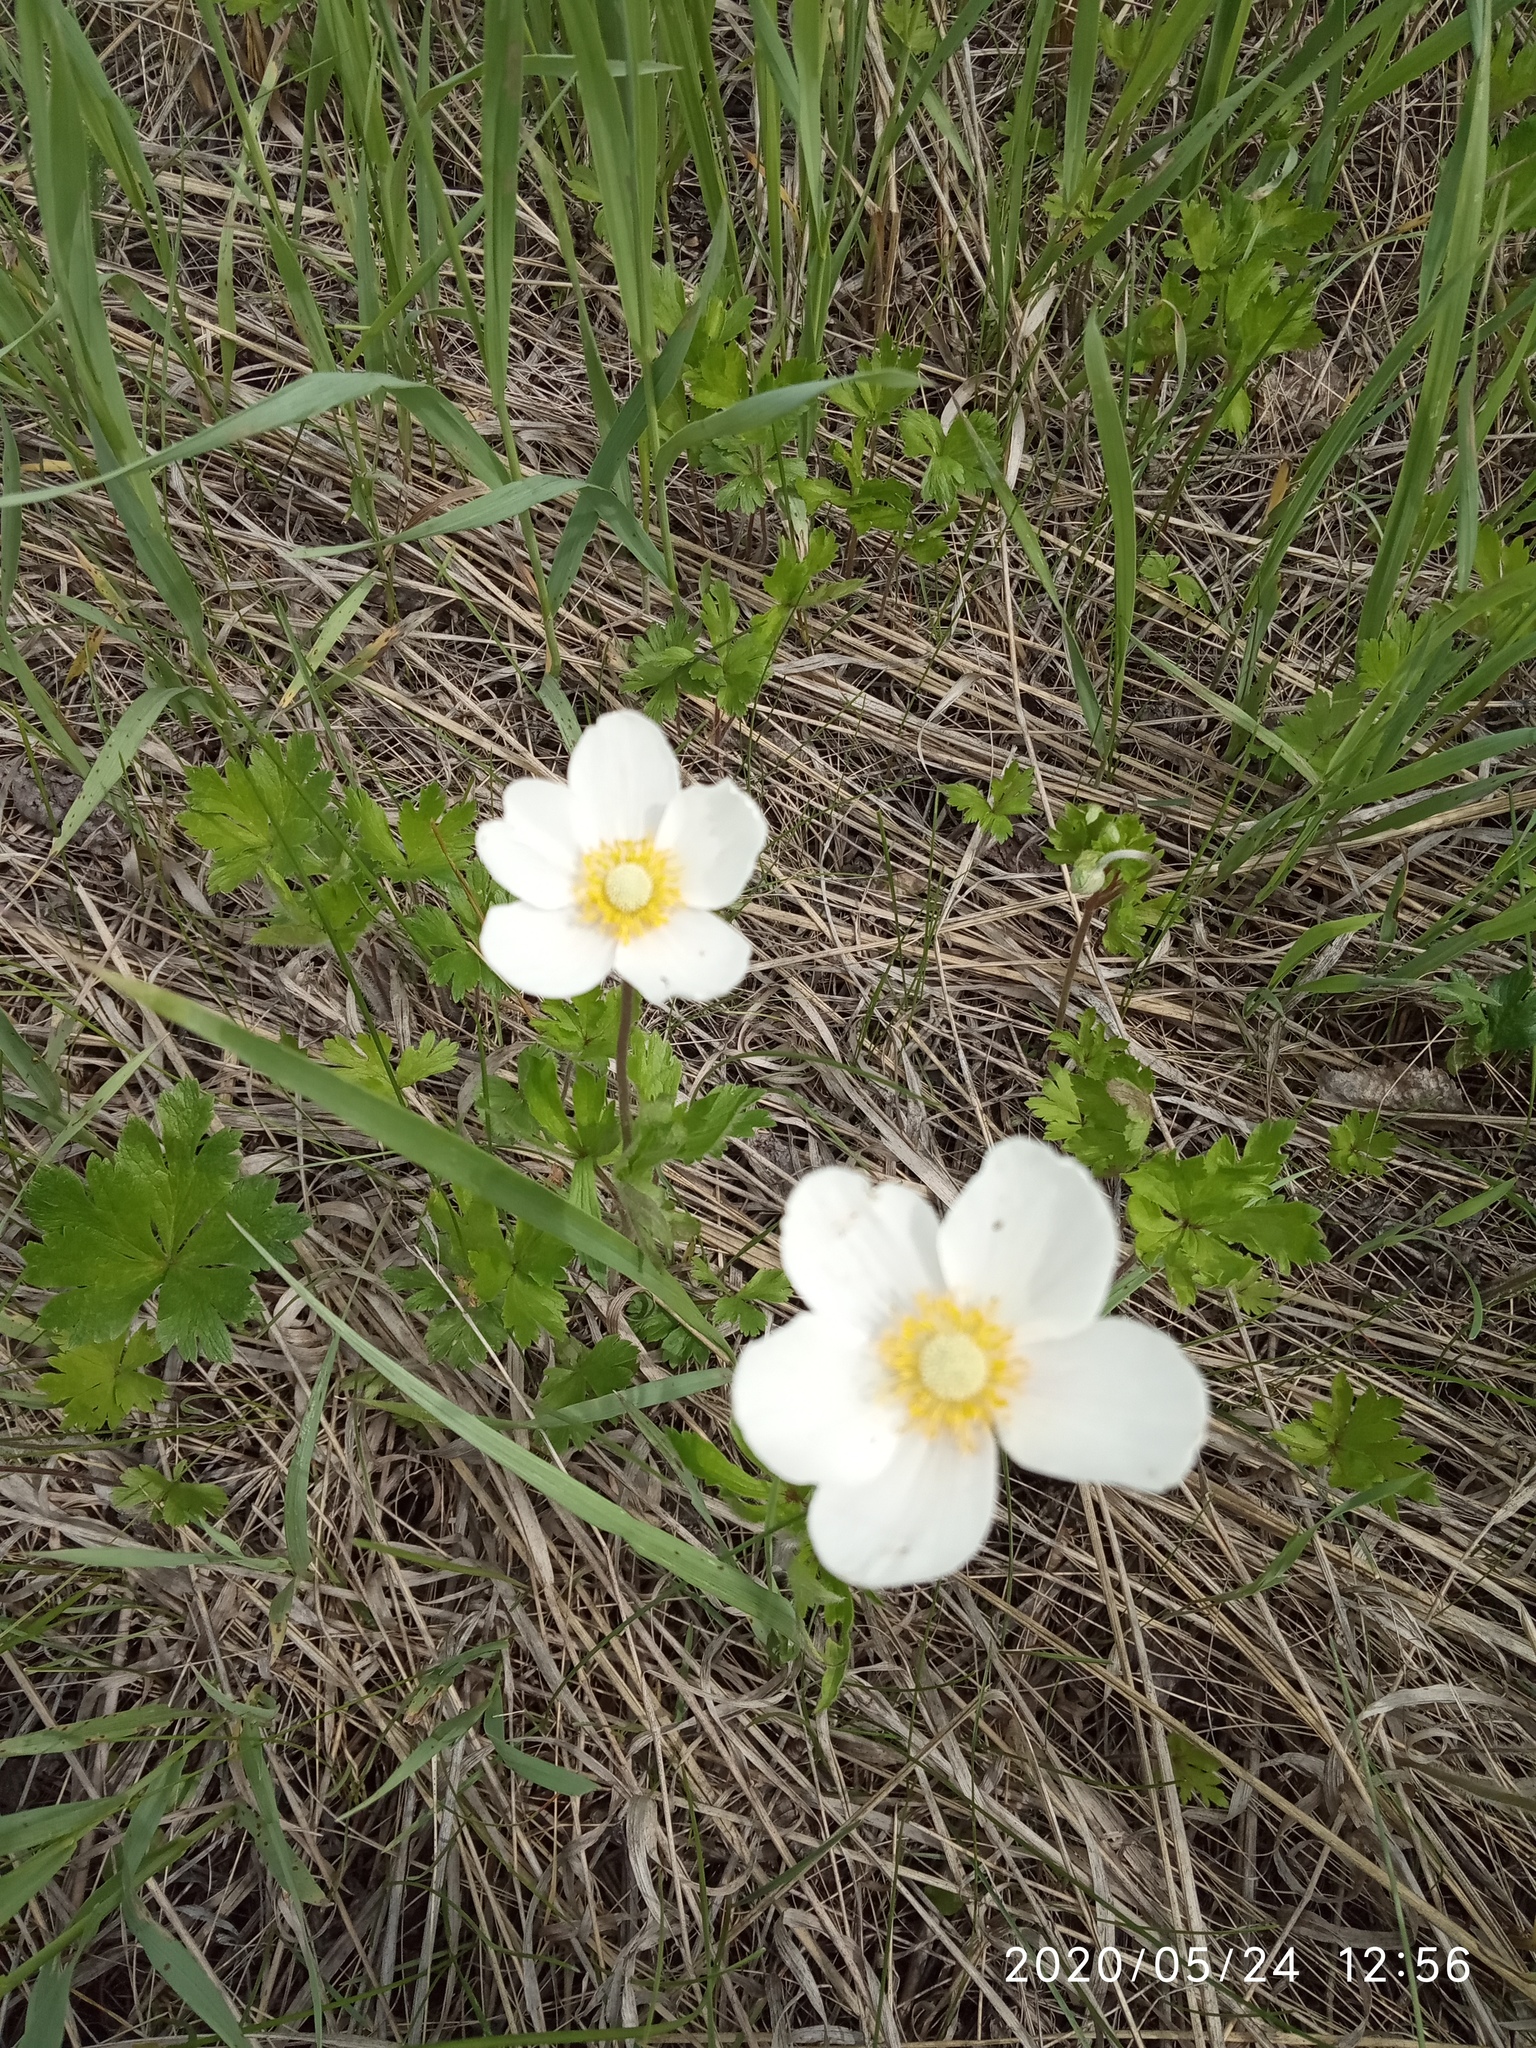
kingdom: Plantae
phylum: Tracheophyta
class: Magnoliopsida
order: Ranunculales
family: Ranunculaceae
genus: Anemone
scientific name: Anemone sylvestris
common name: Snowdrop anemone
